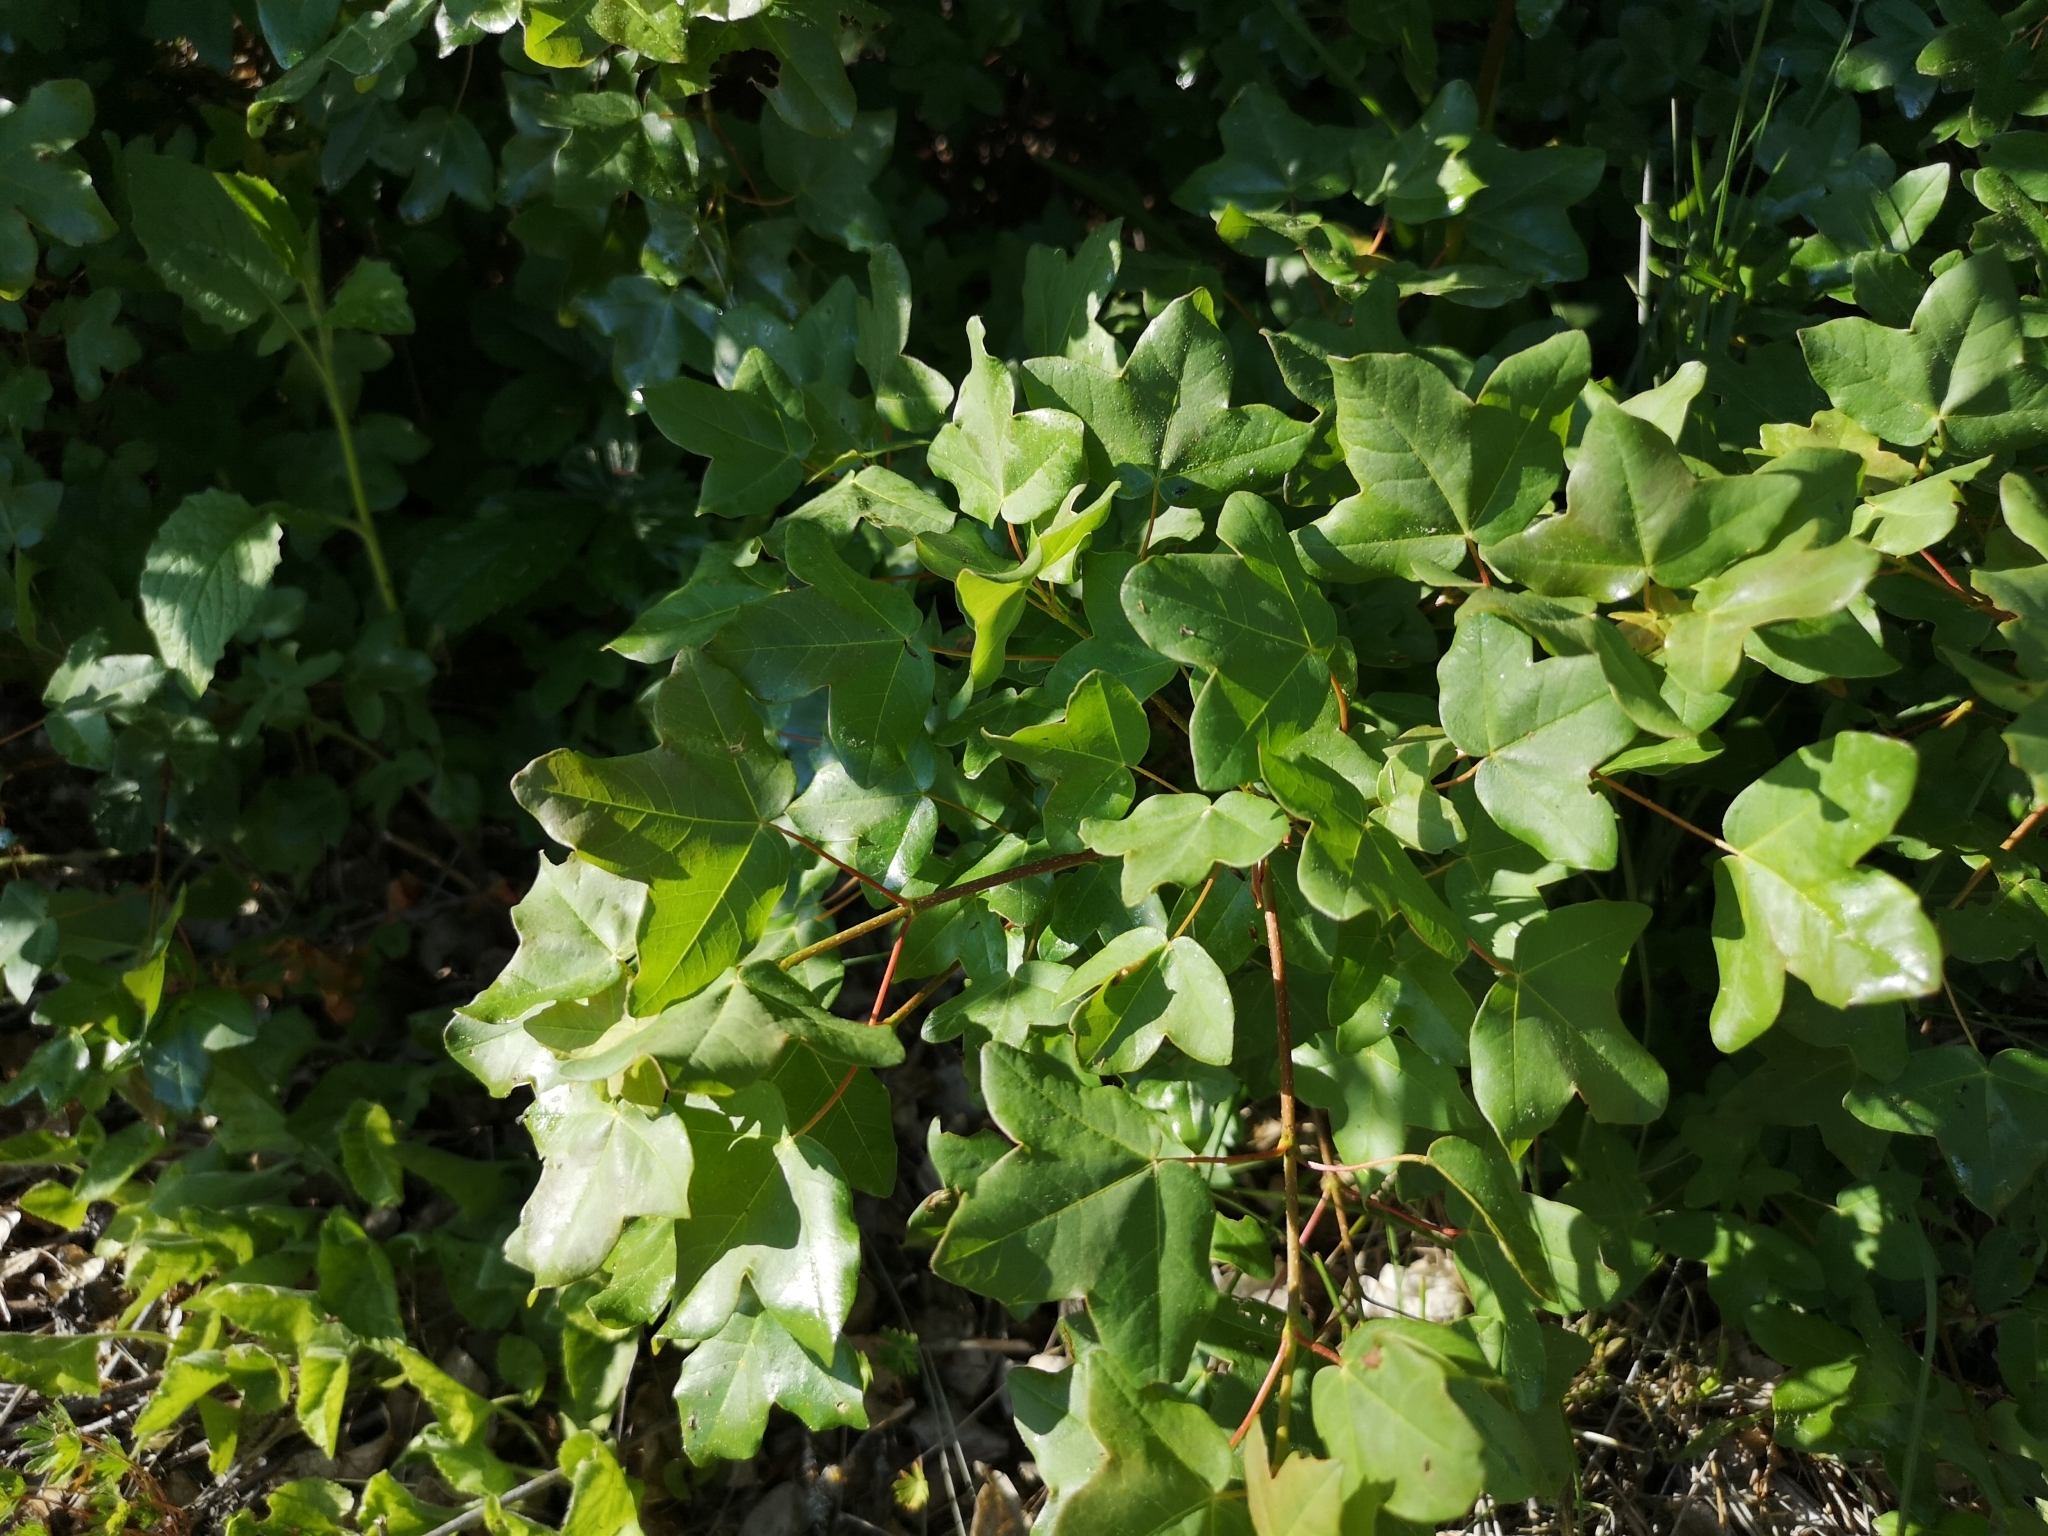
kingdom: Plantae
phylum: Tracheophyta
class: Magnoliopsida
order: Sapindales
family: Sapindaceae
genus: Acer
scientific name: Acer monspessulanum
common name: Montpellier maple
